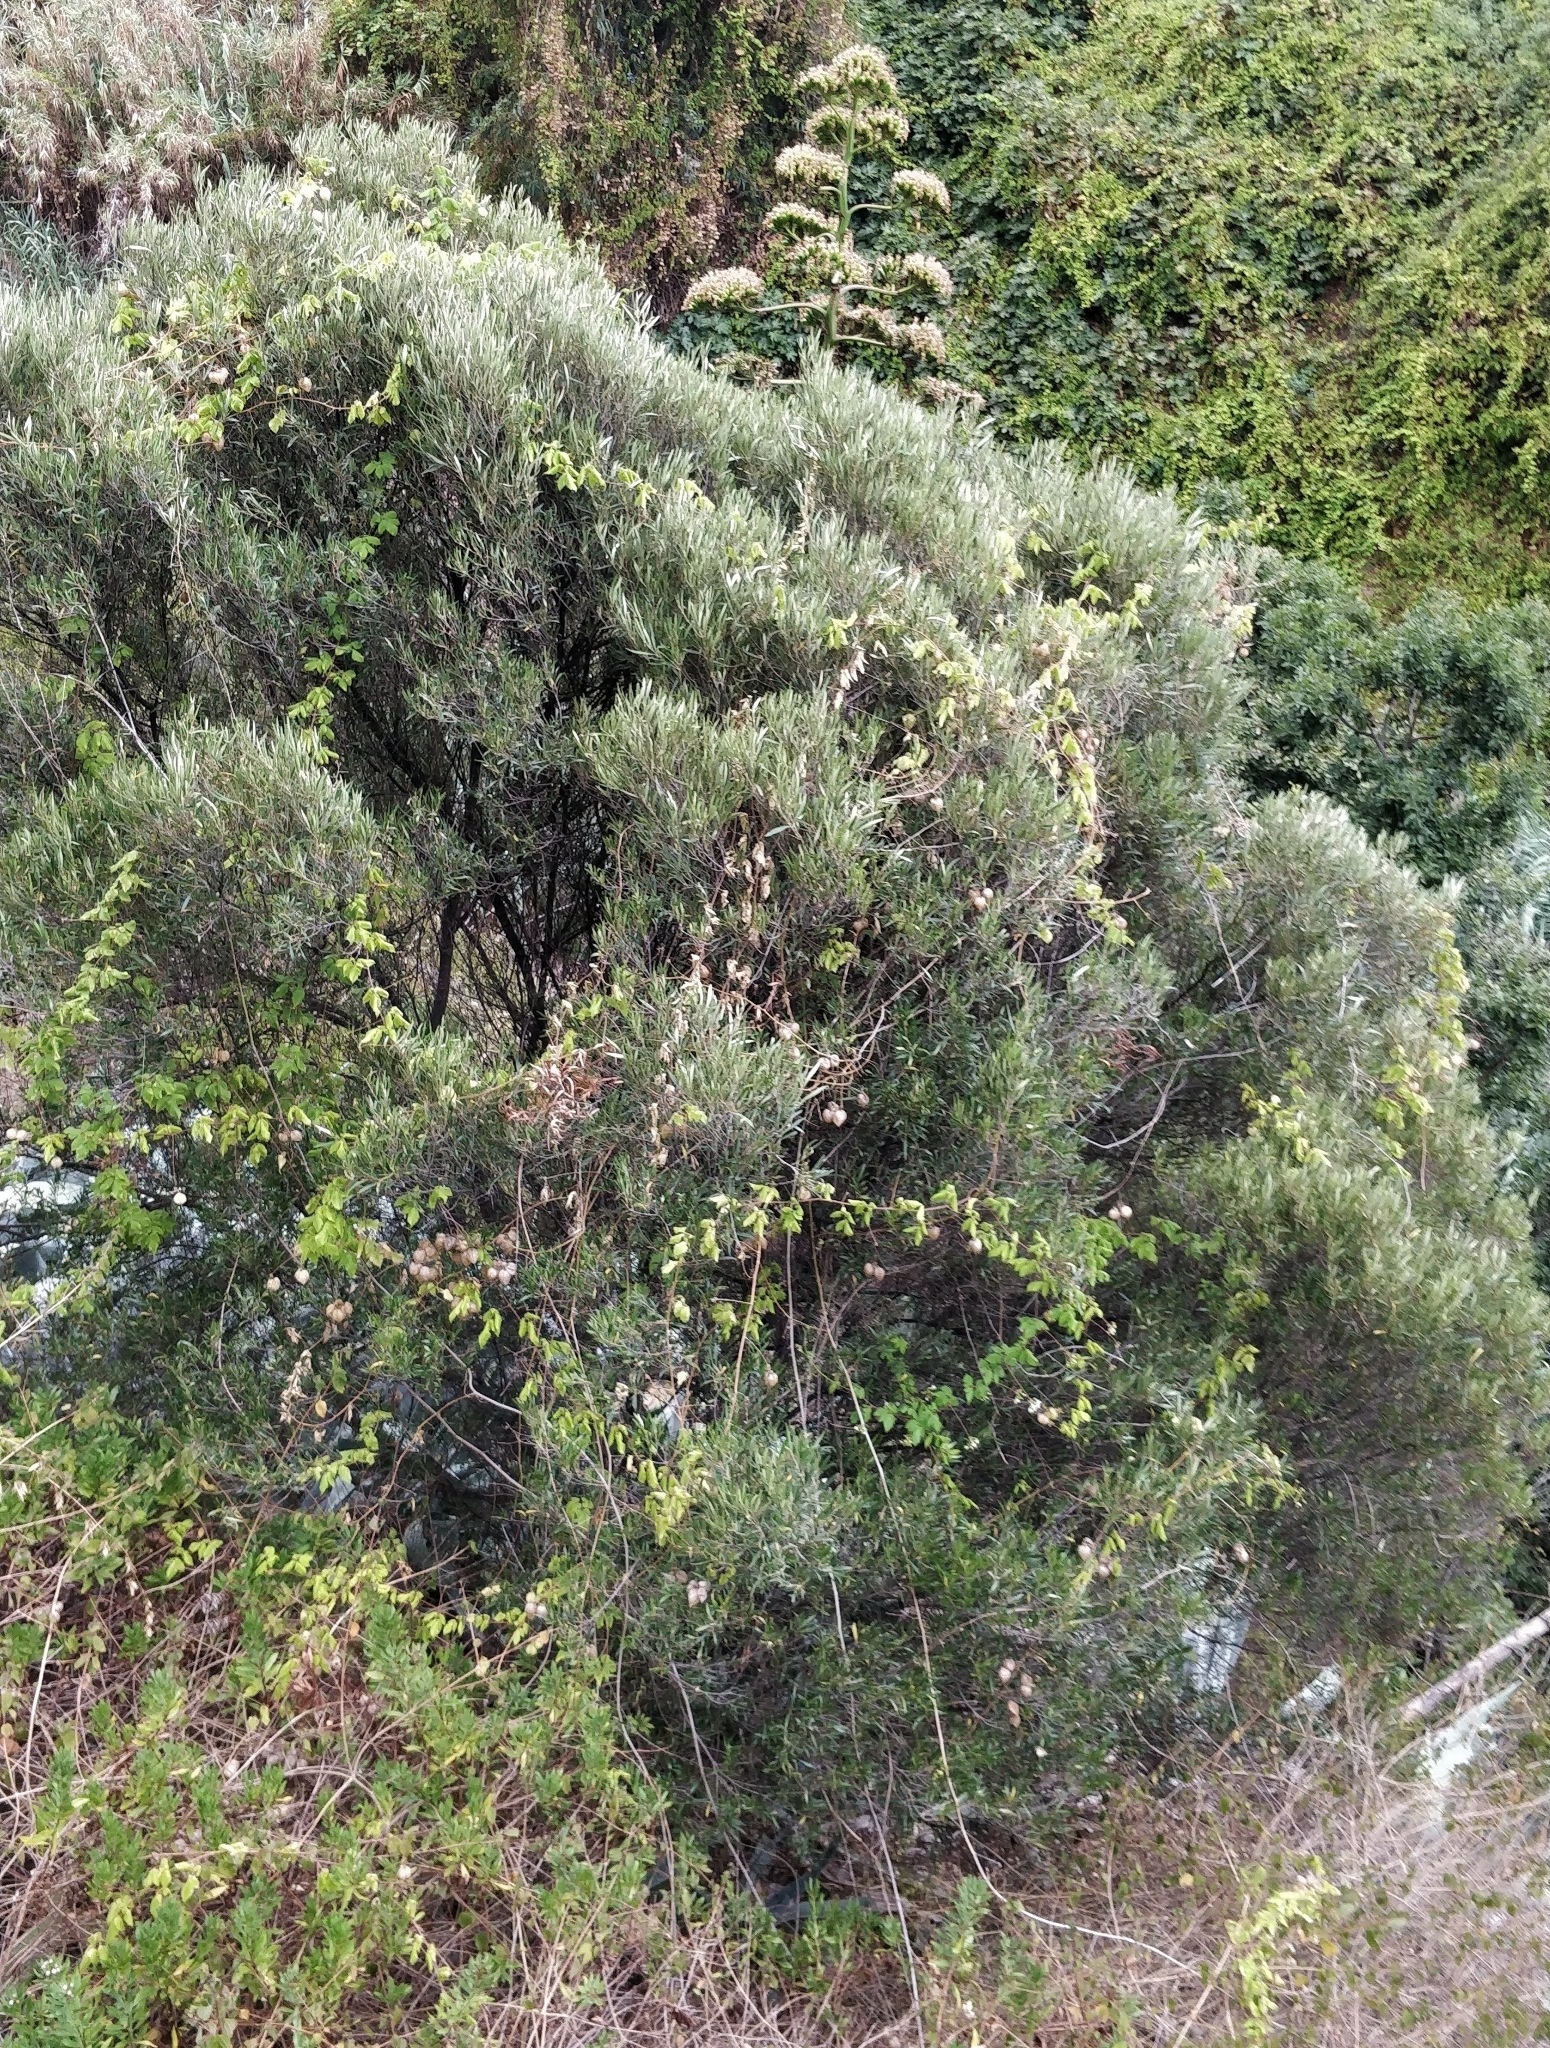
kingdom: Plantae
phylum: Tracheophyta
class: Magnoliopsida
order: Lamiales
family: Oleaceae
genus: Olea
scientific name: Olea europaea
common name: Olive
